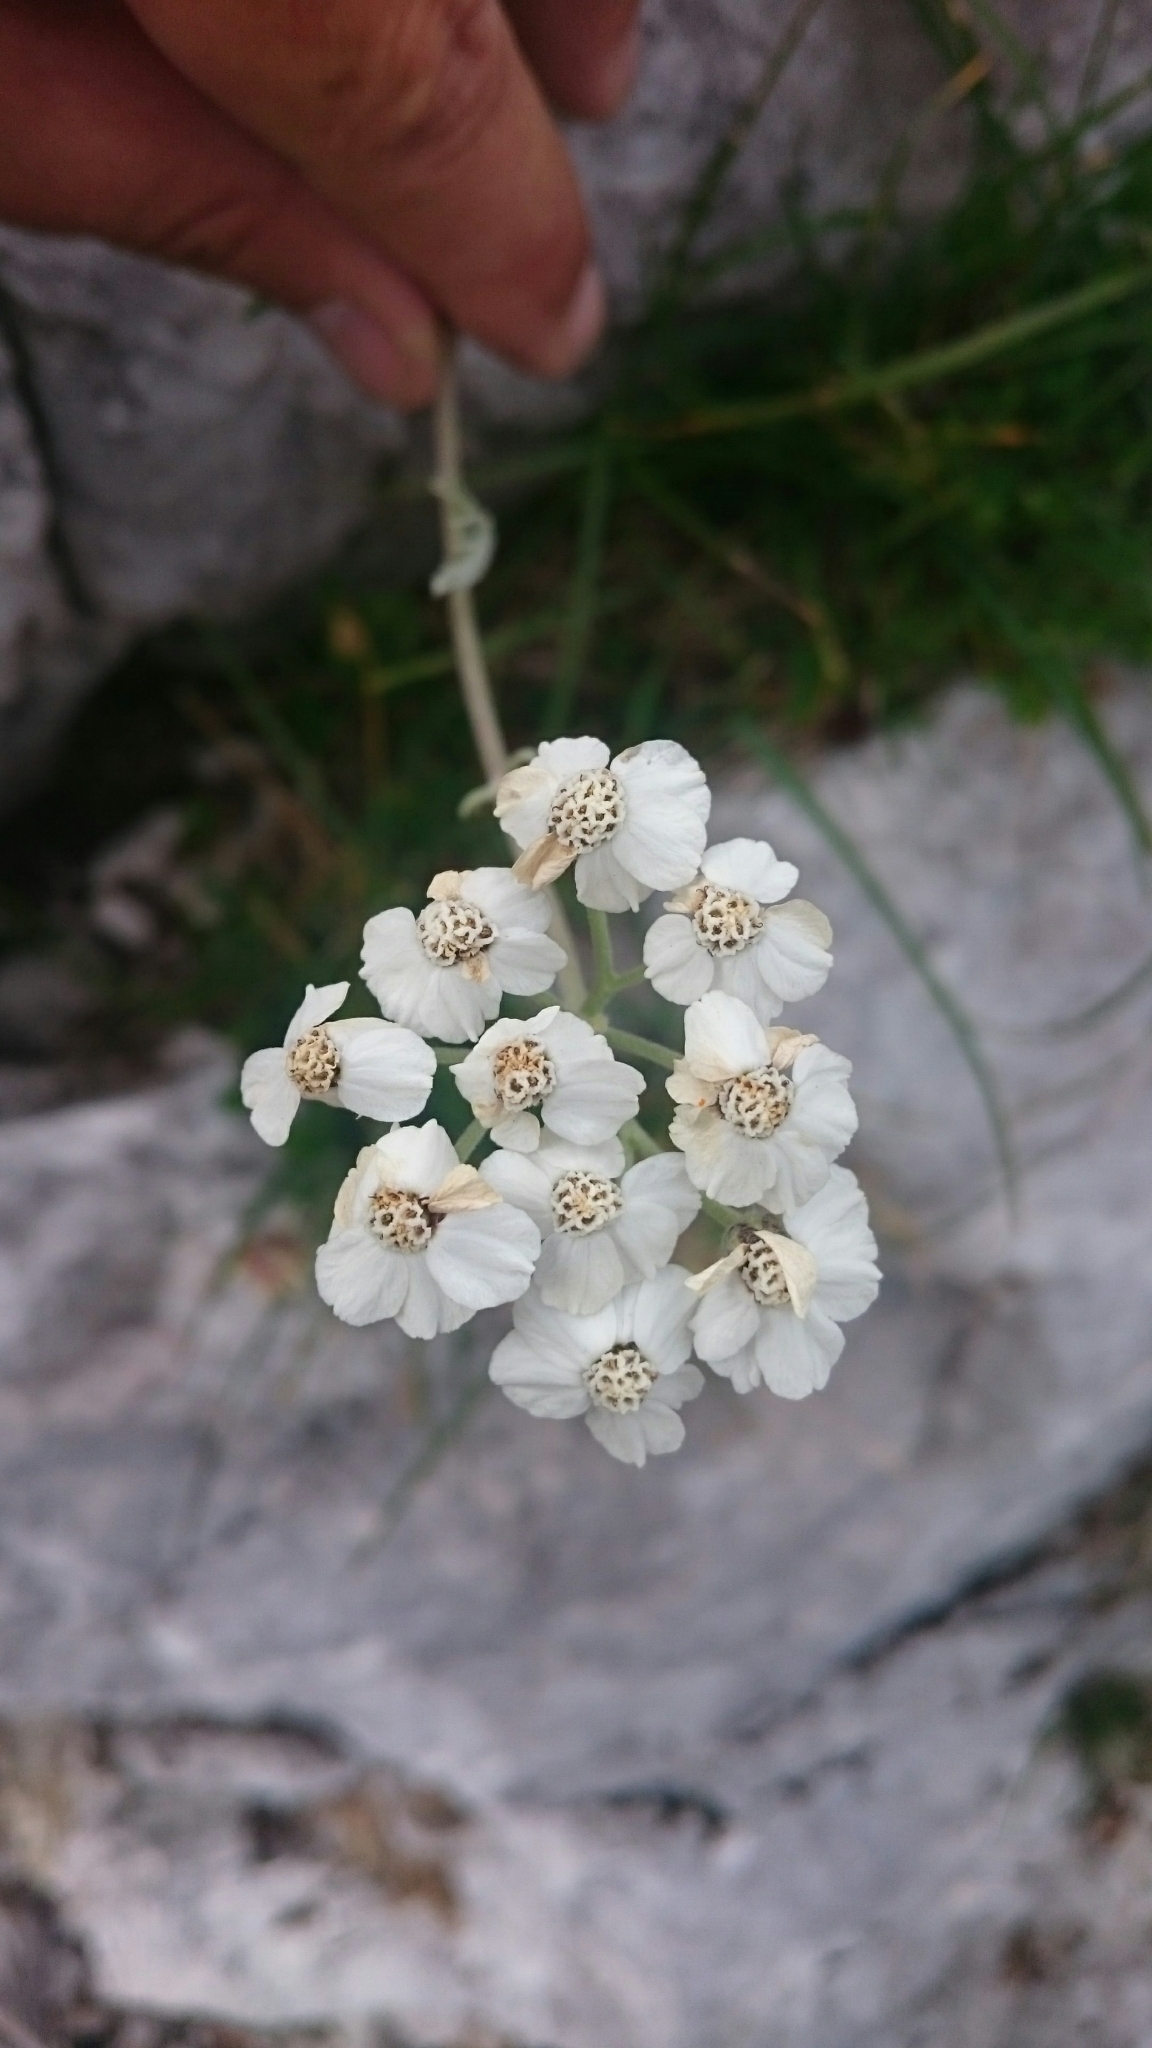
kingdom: Plantae
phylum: Tracheophyta
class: Magnoliopsida
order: Asterales
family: Asteraceae
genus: Achillea
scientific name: Achillea clavennae
